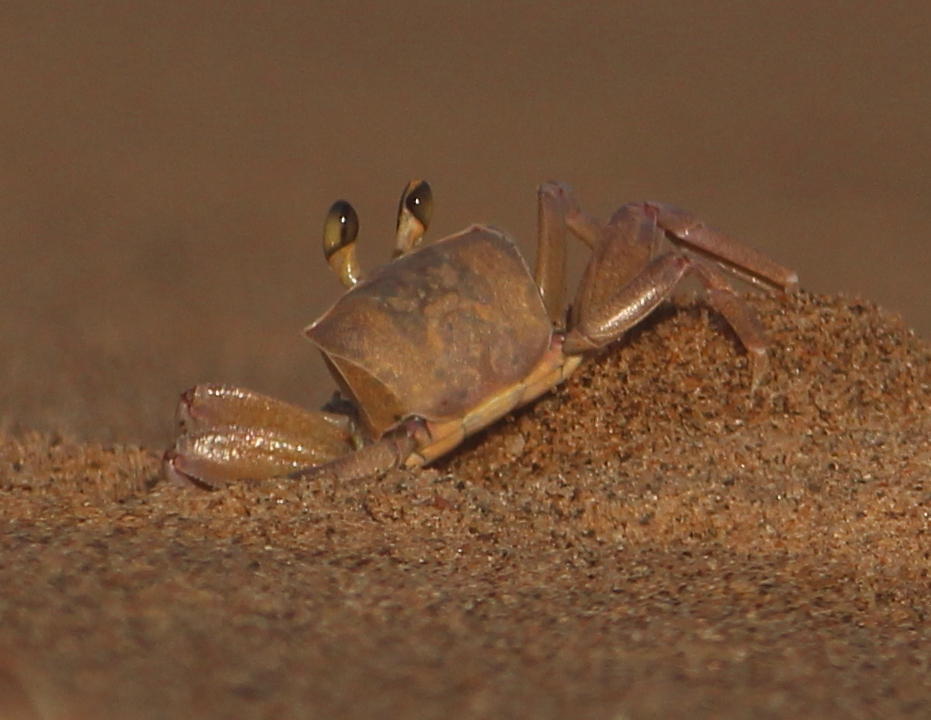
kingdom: Animalia
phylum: Arthropoda
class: Malacostraca
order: Decapoda
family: Ocypodidae
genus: Ocypode
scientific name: Ocypode ryderi
